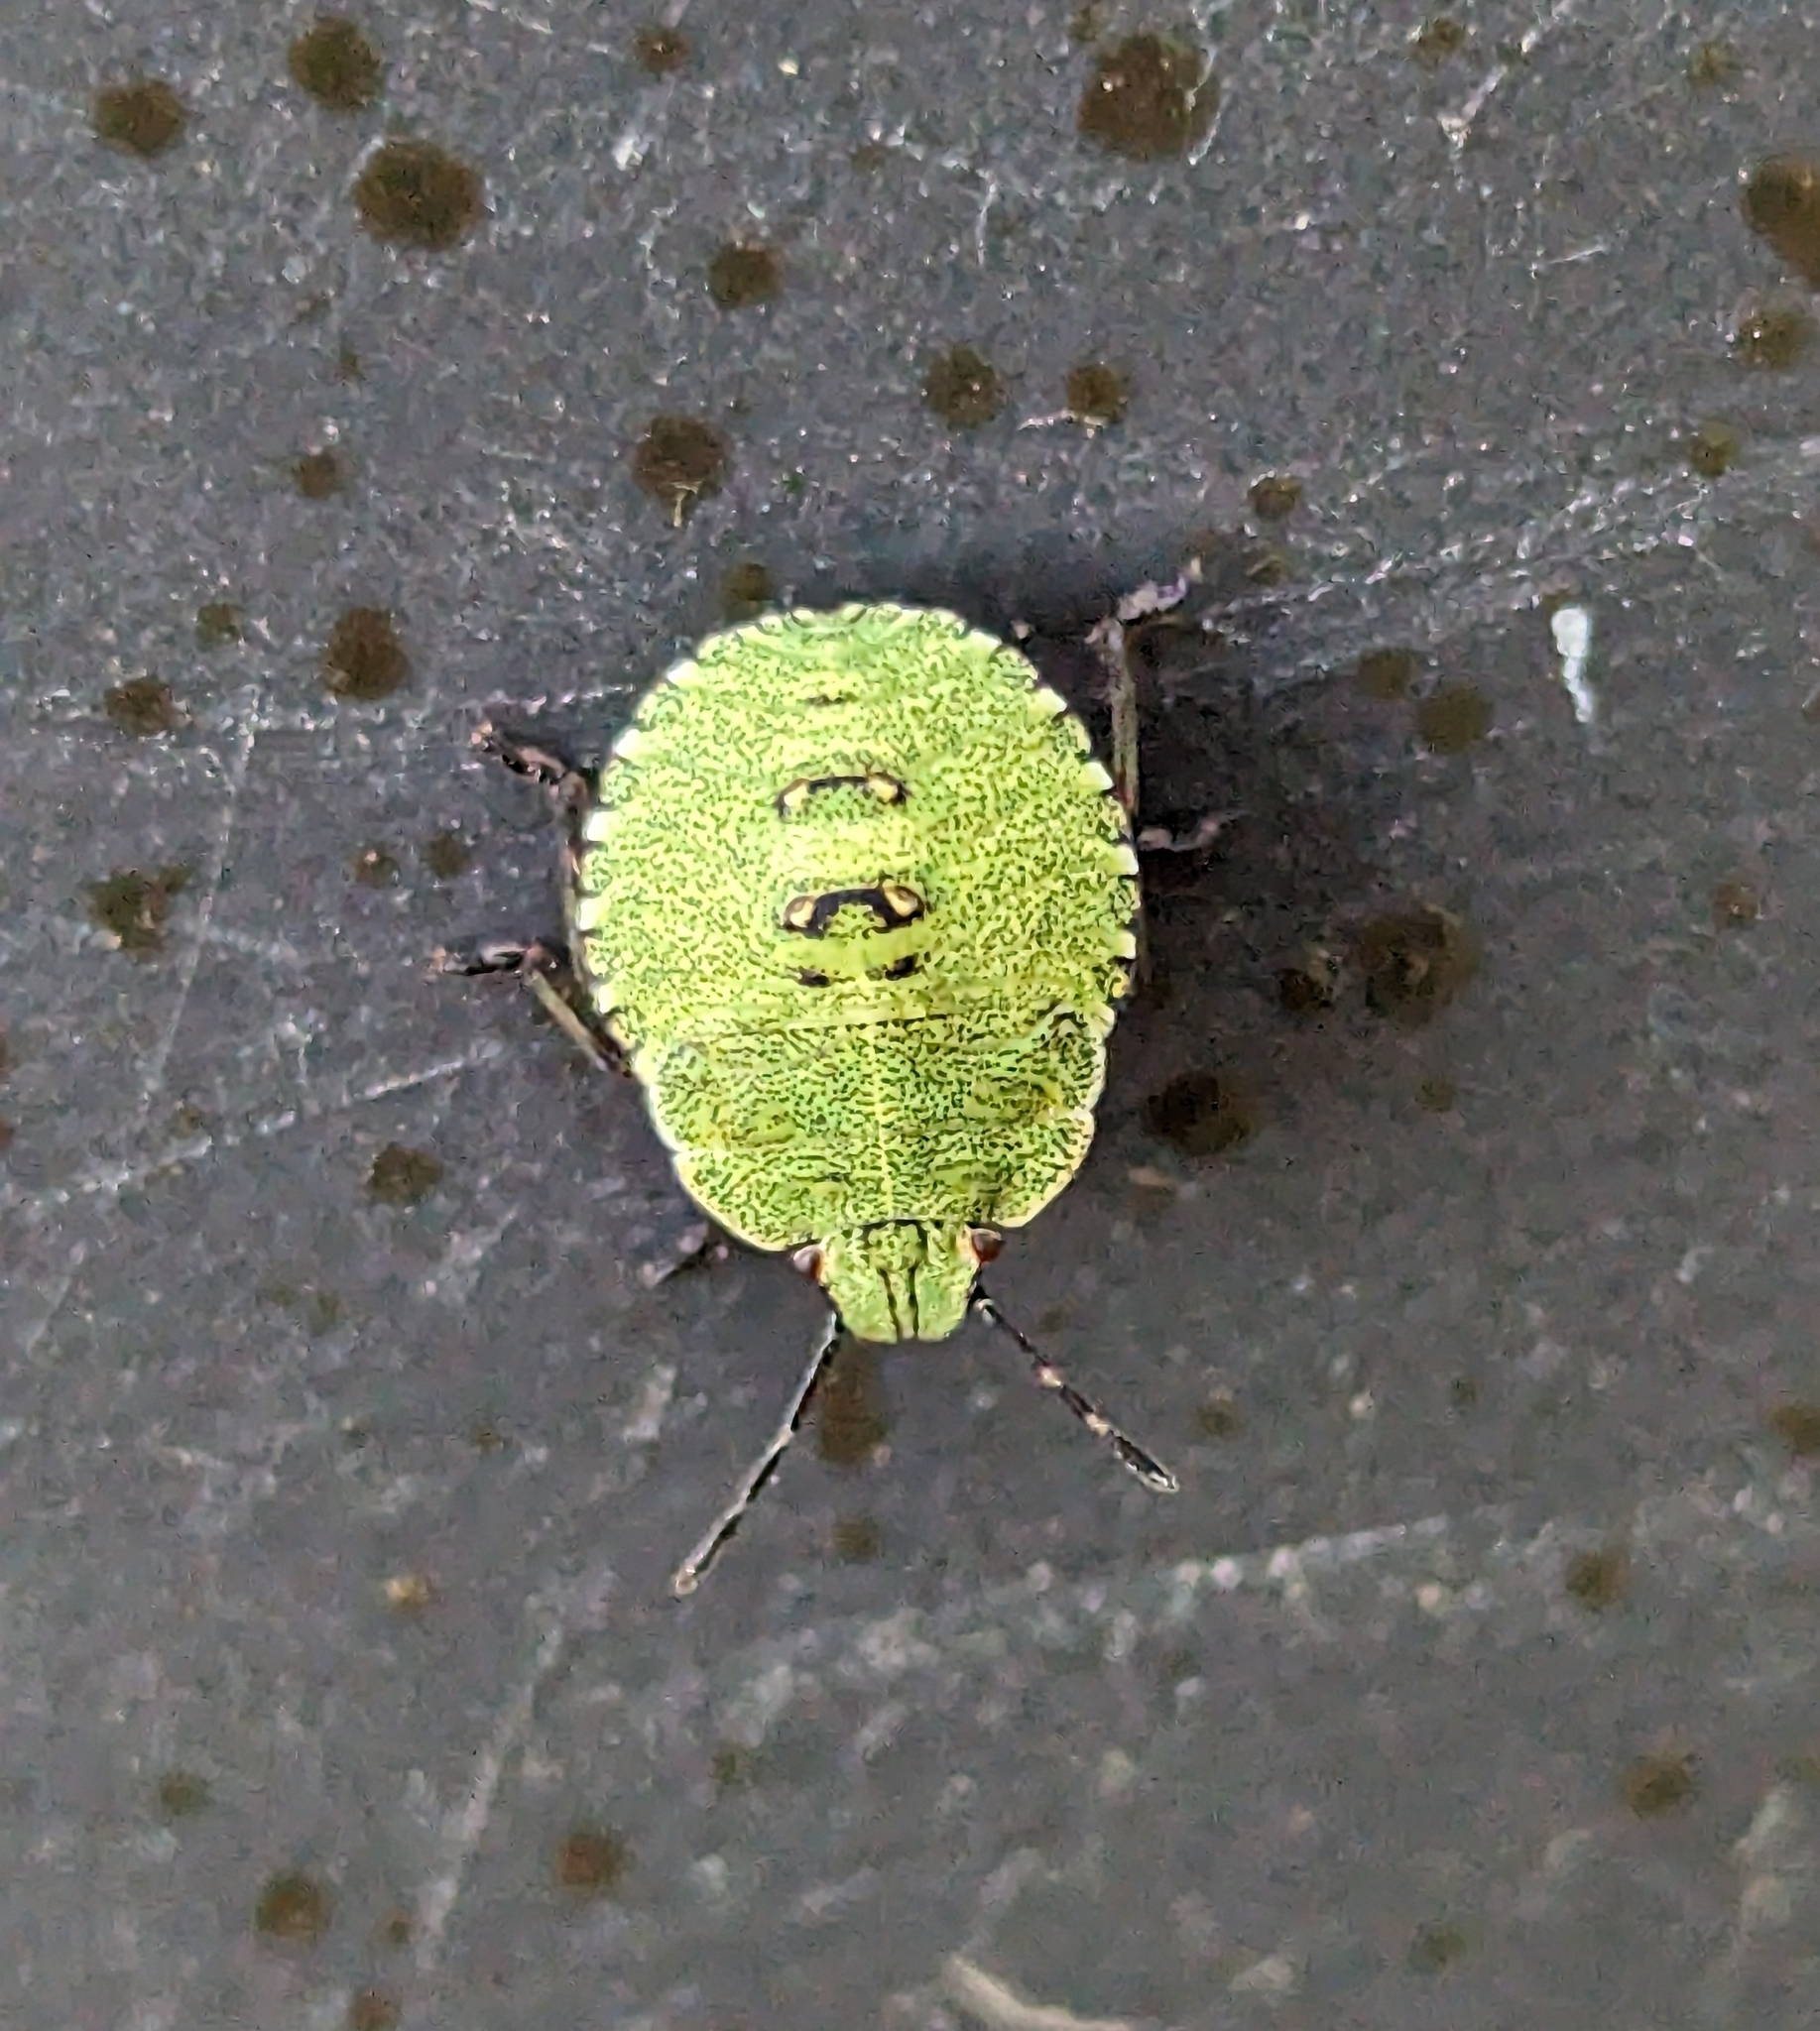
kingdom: Animalia
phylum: Arthropoda
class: Insecta
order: Hemiptera
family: Pentatomidae
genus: Palomena
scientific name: Palomena prasina
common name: Green shieldbug
